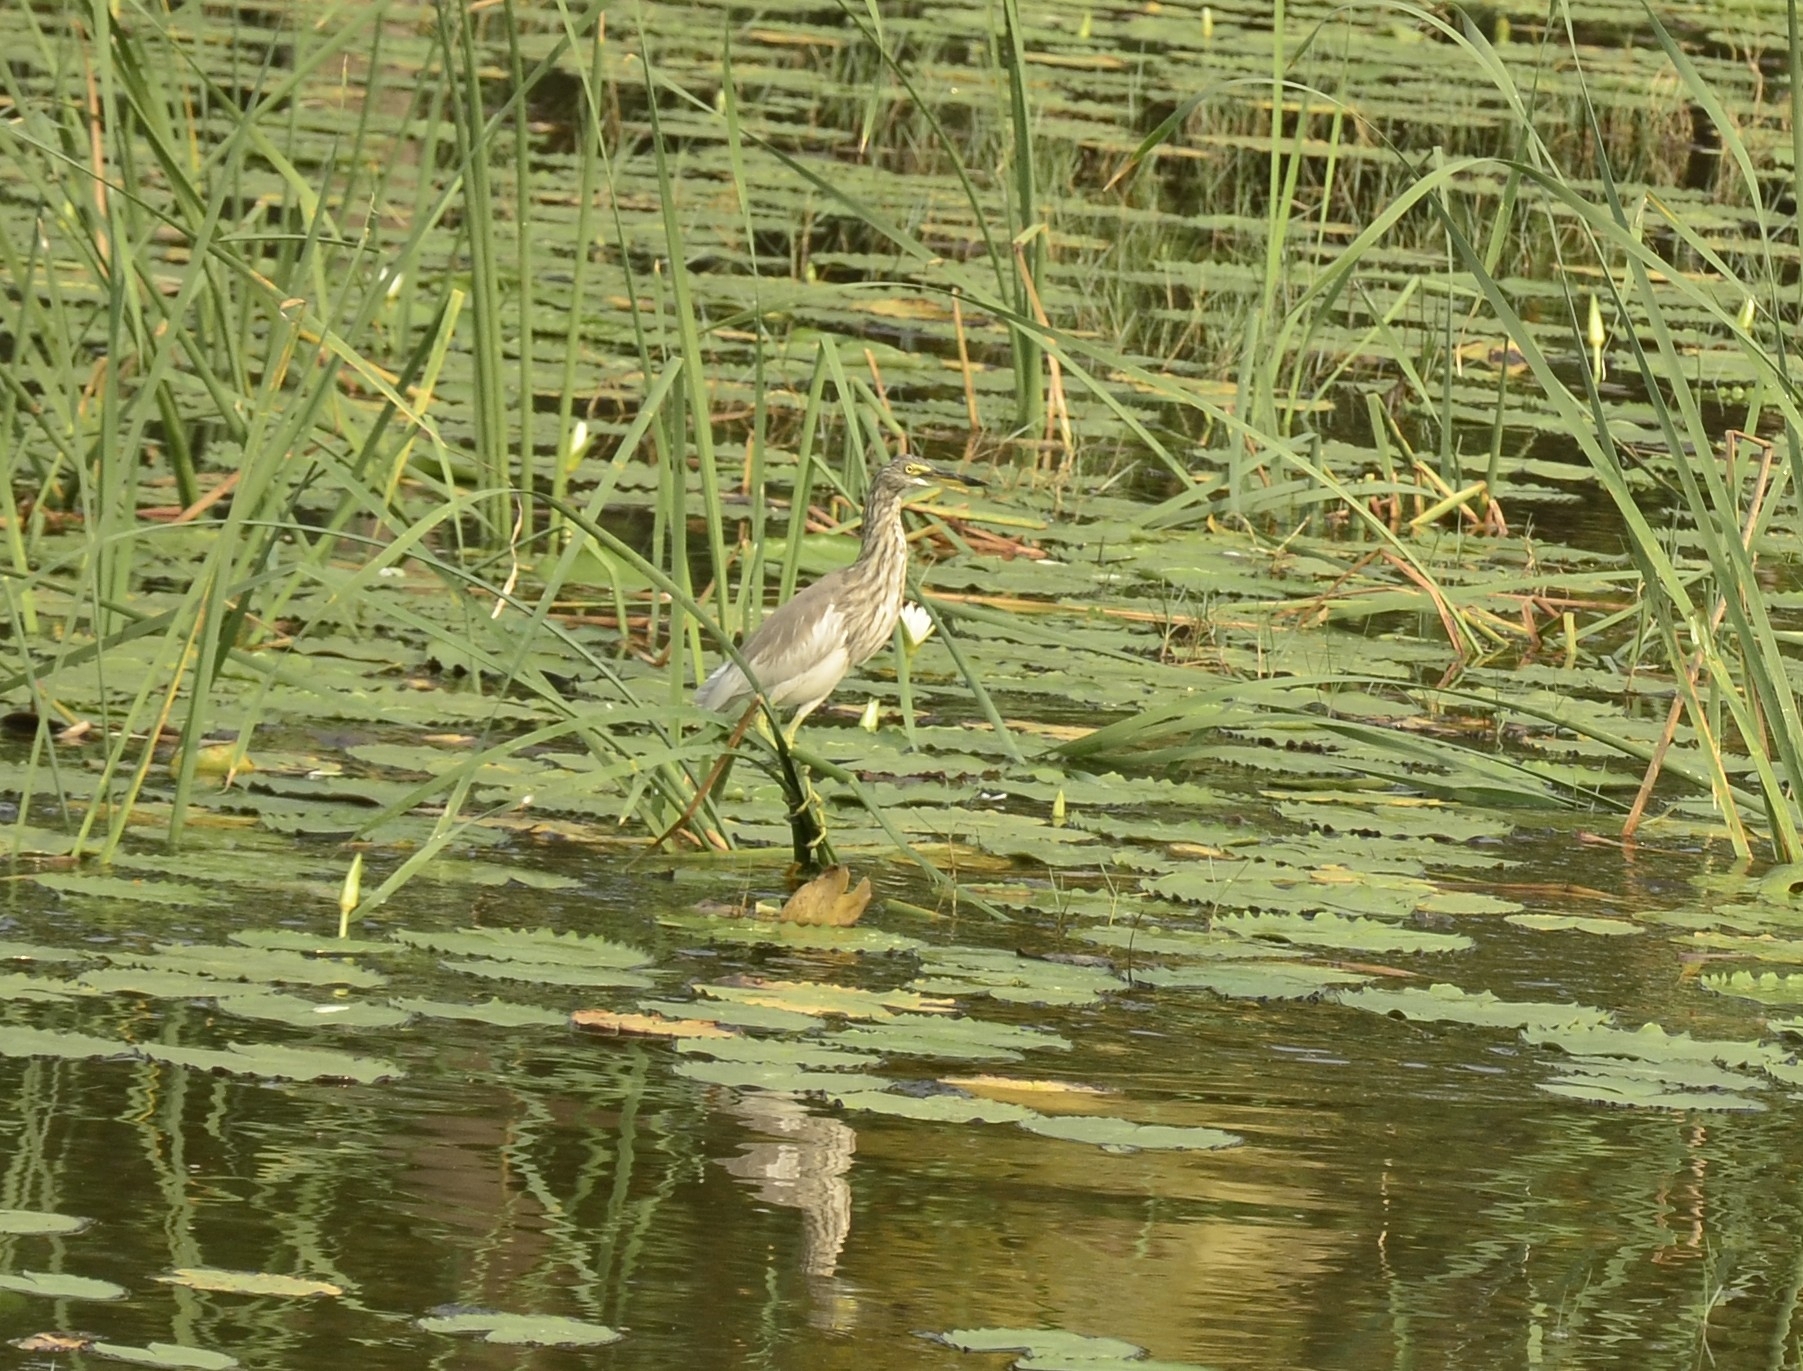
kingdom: Animalia
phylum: Chordata
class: Aves
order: Pelecaniformes
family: Ardeidae
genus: Ardeola
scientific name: Ardeola grayii
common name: Indian pond heron
